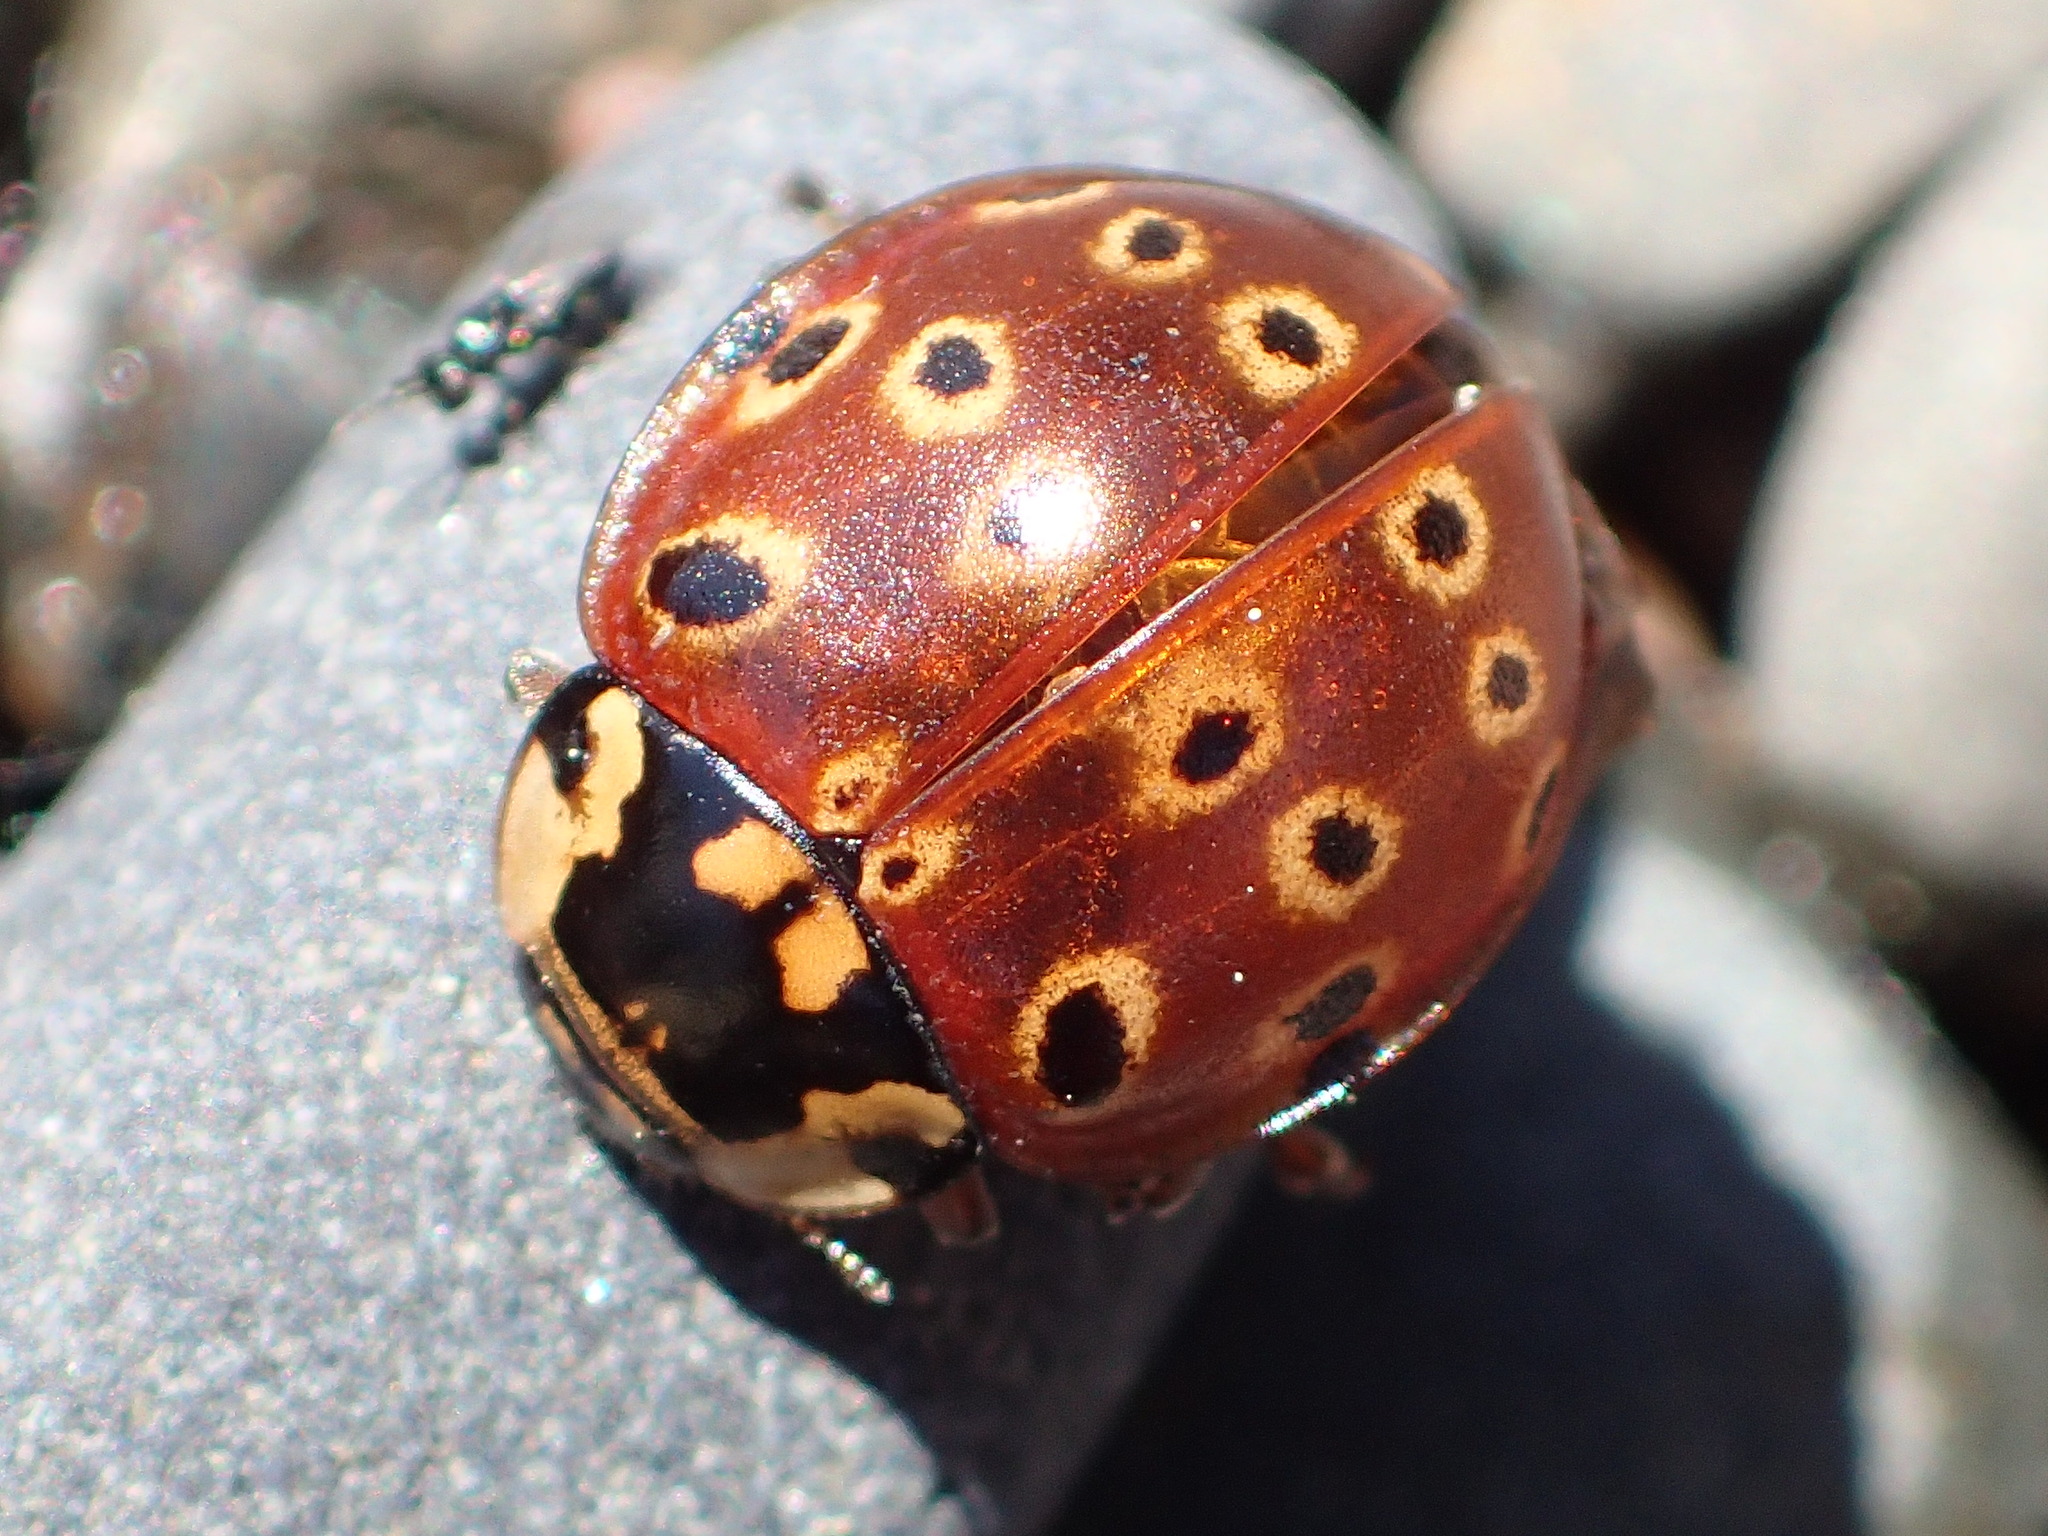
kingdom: Animalia
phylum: Arthropoda
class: Insecta
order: Coleoptera
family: Coccinellidae
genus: Anatis
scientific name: Anatis mali
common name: Eye-spotted lady beetle
